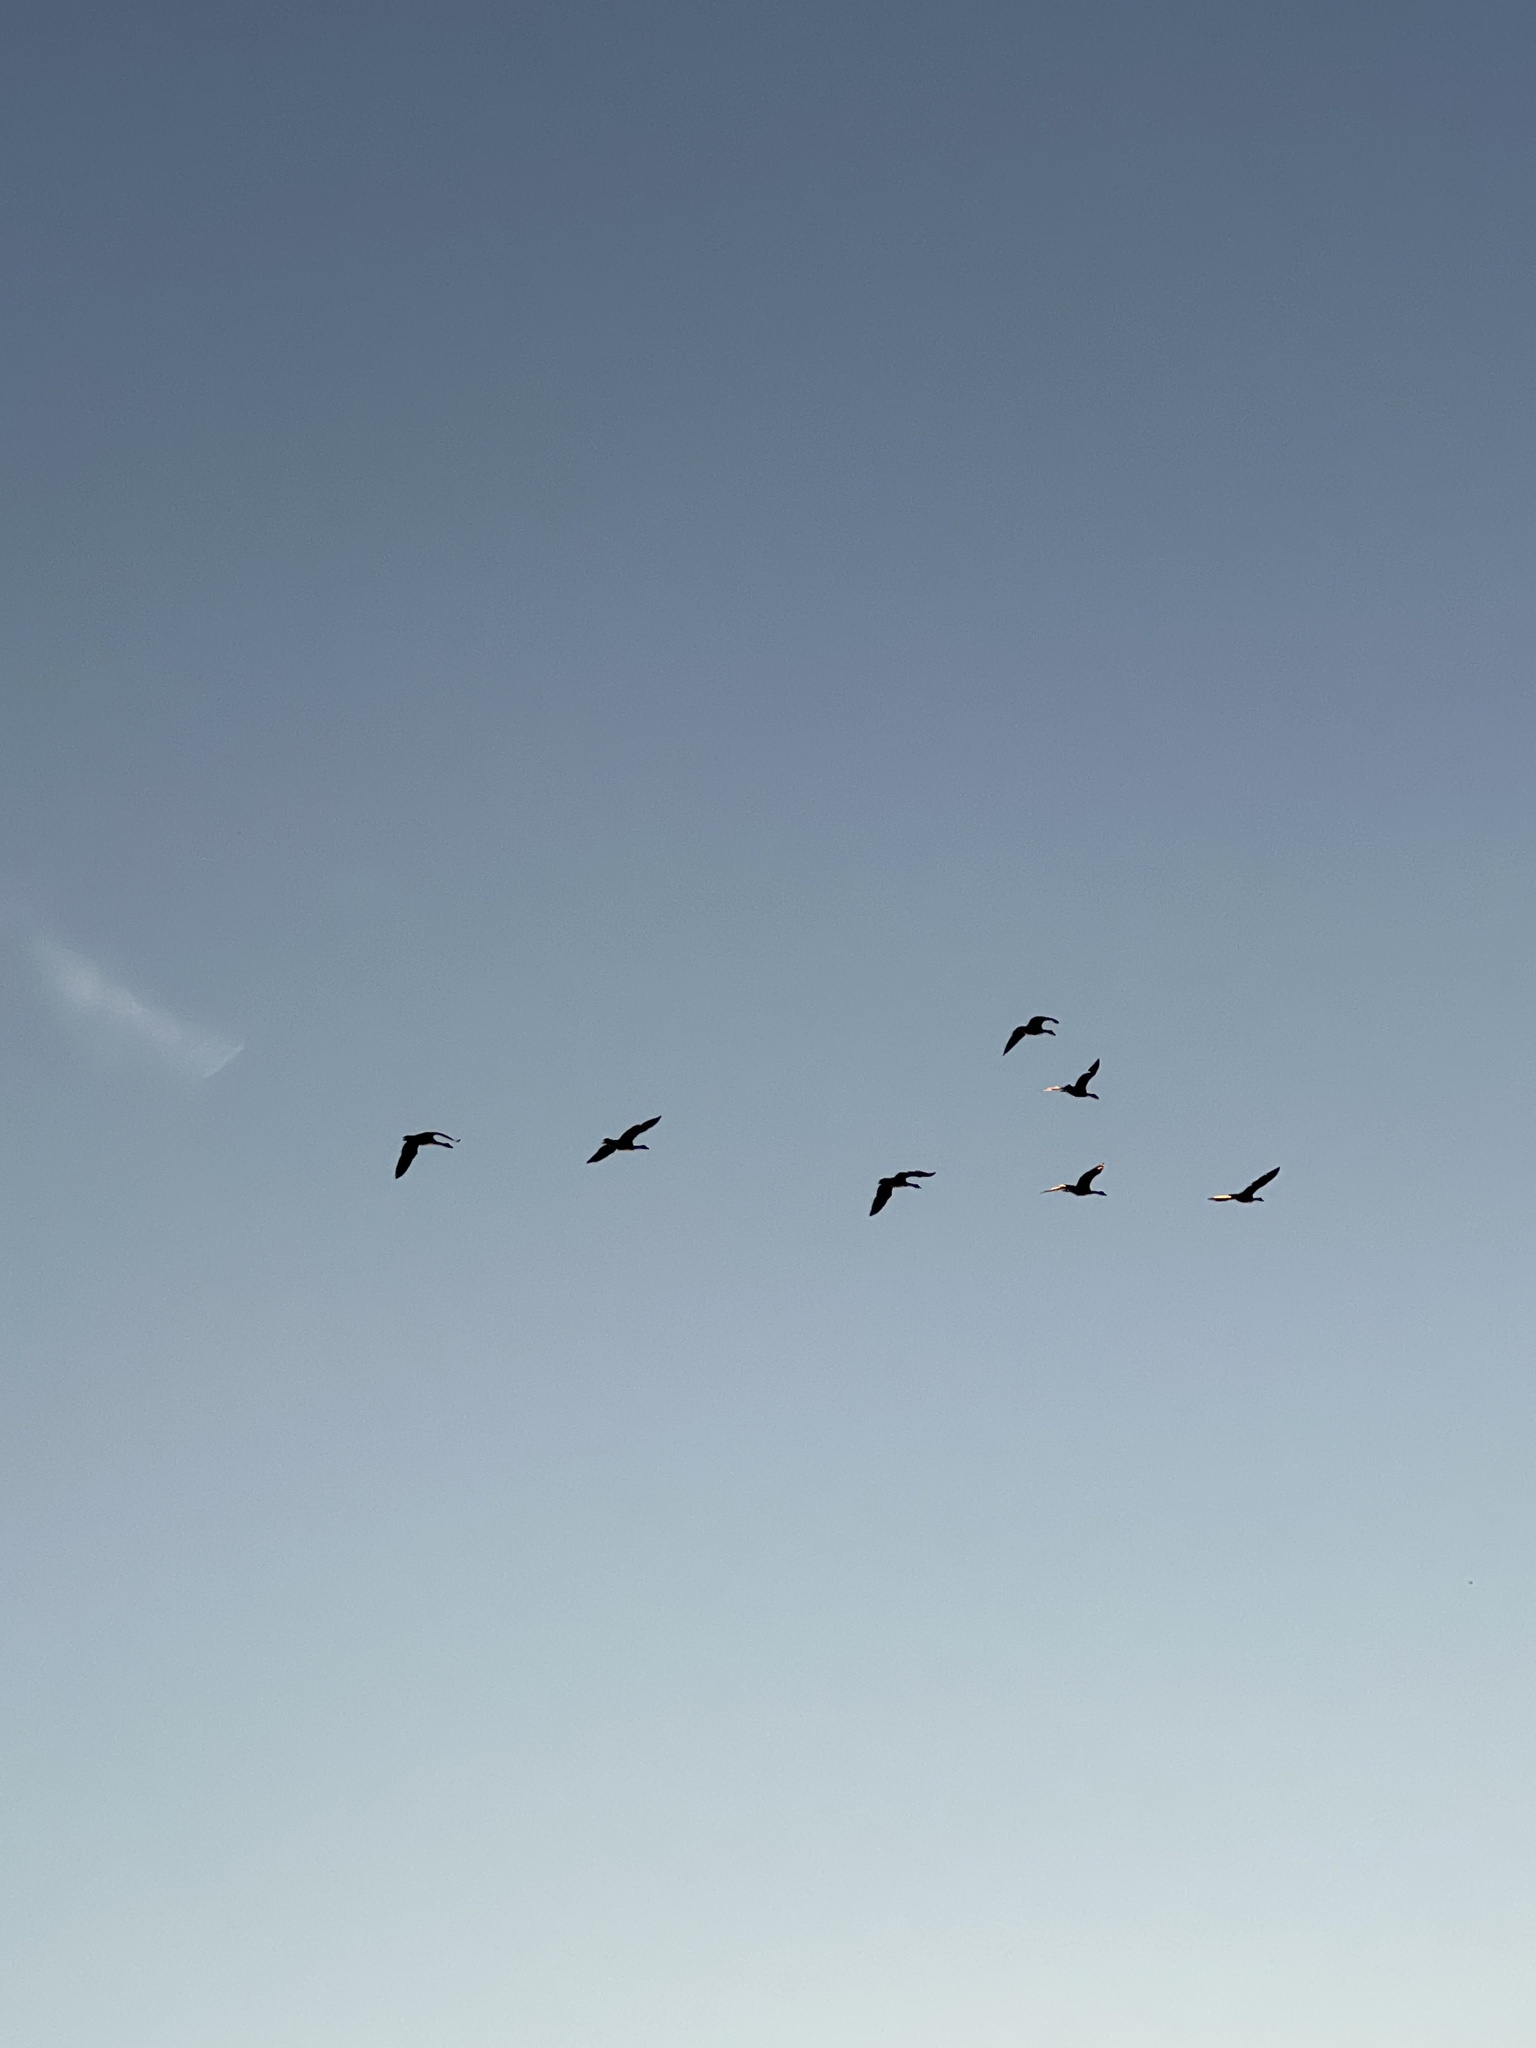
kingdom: Animalia
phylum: Chordata
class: Aves
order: Anseriformes
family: Anatidae
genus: Branta
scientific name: Branta canadensis
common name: Canada goose
